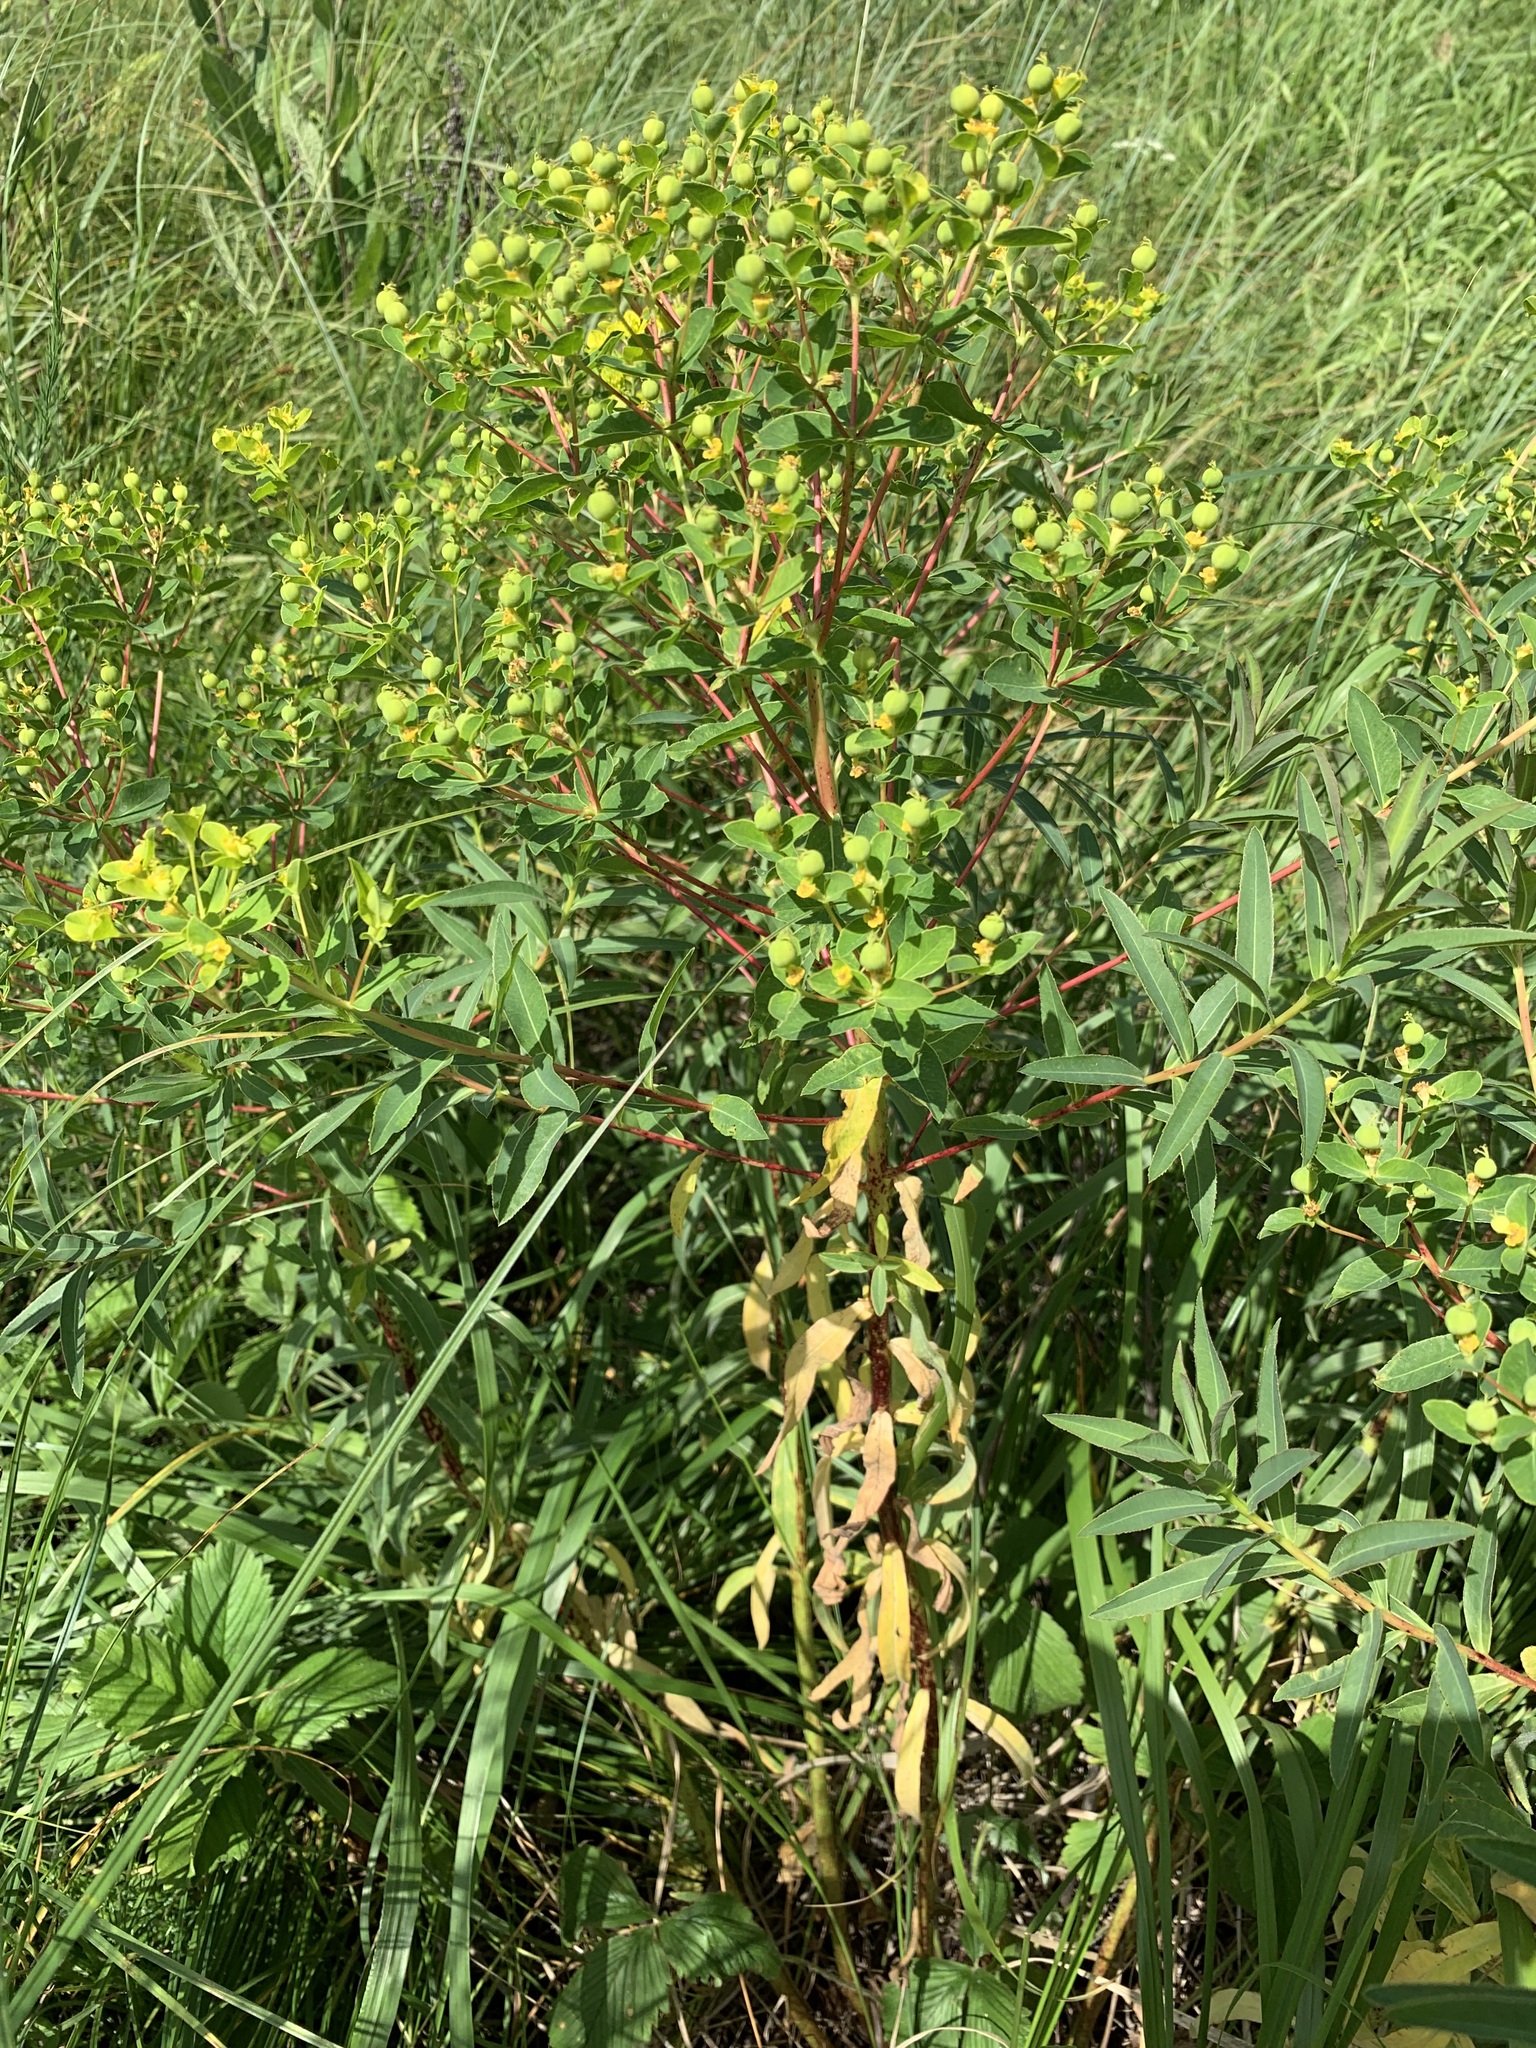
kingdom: Plantae
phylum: Tracheophyta
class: Magnoliopsida
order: Malpighiales
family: Euphorbiaceae
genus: Euphorbia
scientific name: Euphorbia semivillosa
